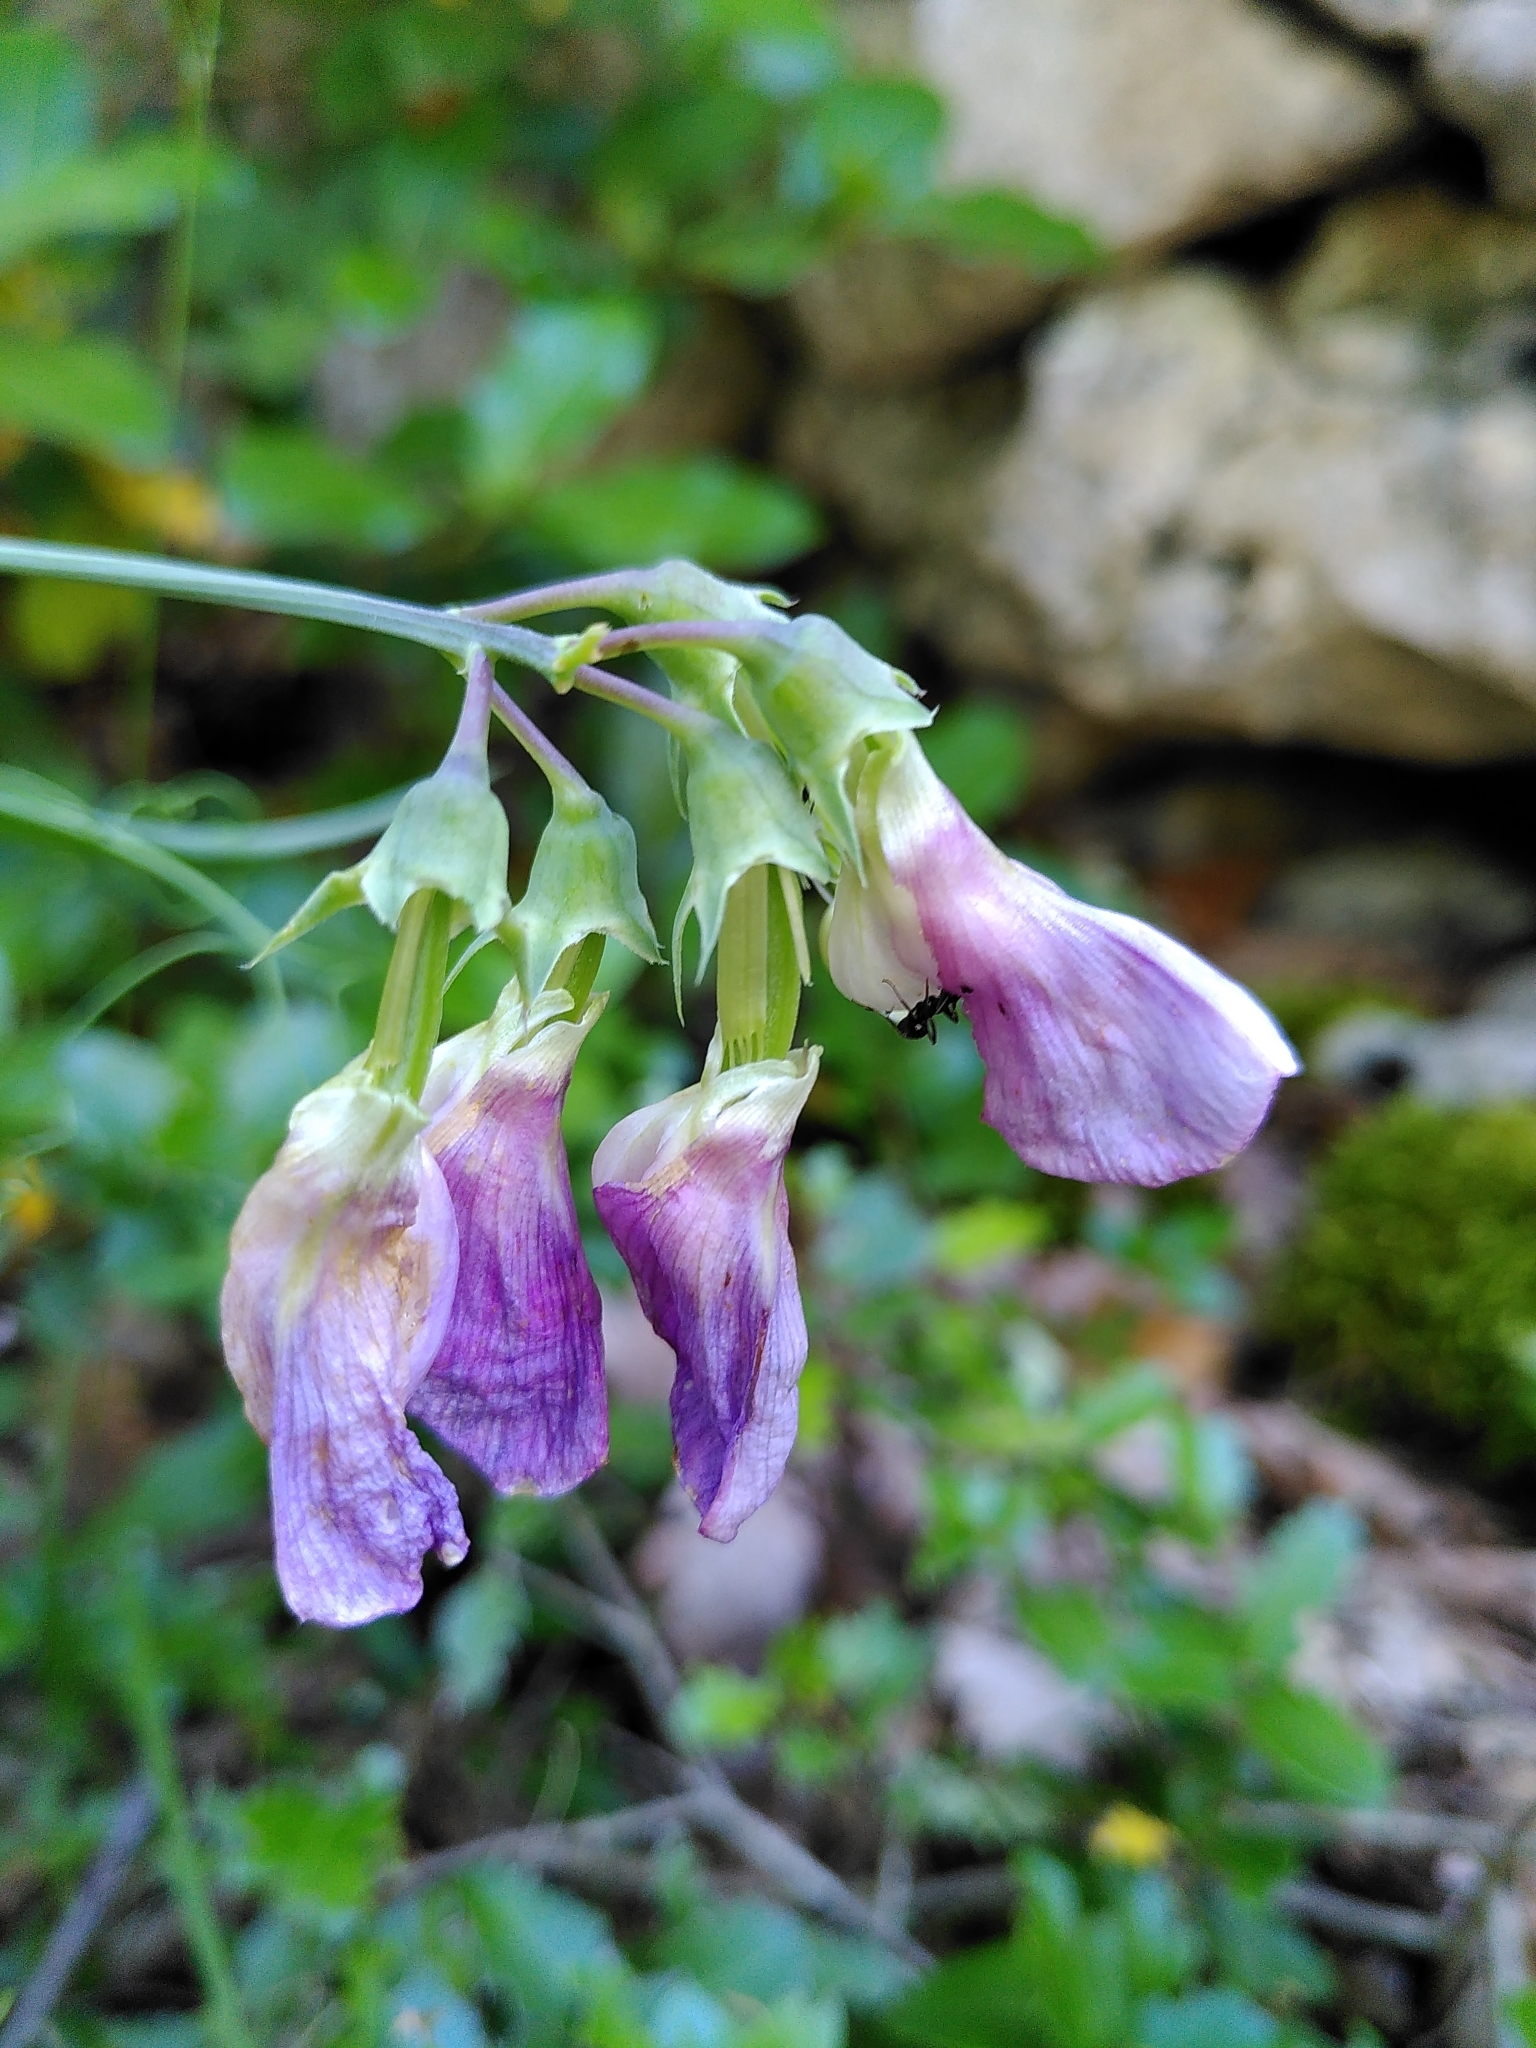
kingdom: Plantae
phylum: Tracheophyta
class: Magnoliopsida
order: Fabales
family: Fabaceae
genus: Lathyrus
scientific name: Lathyrus latifolius
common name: Perennial pea
